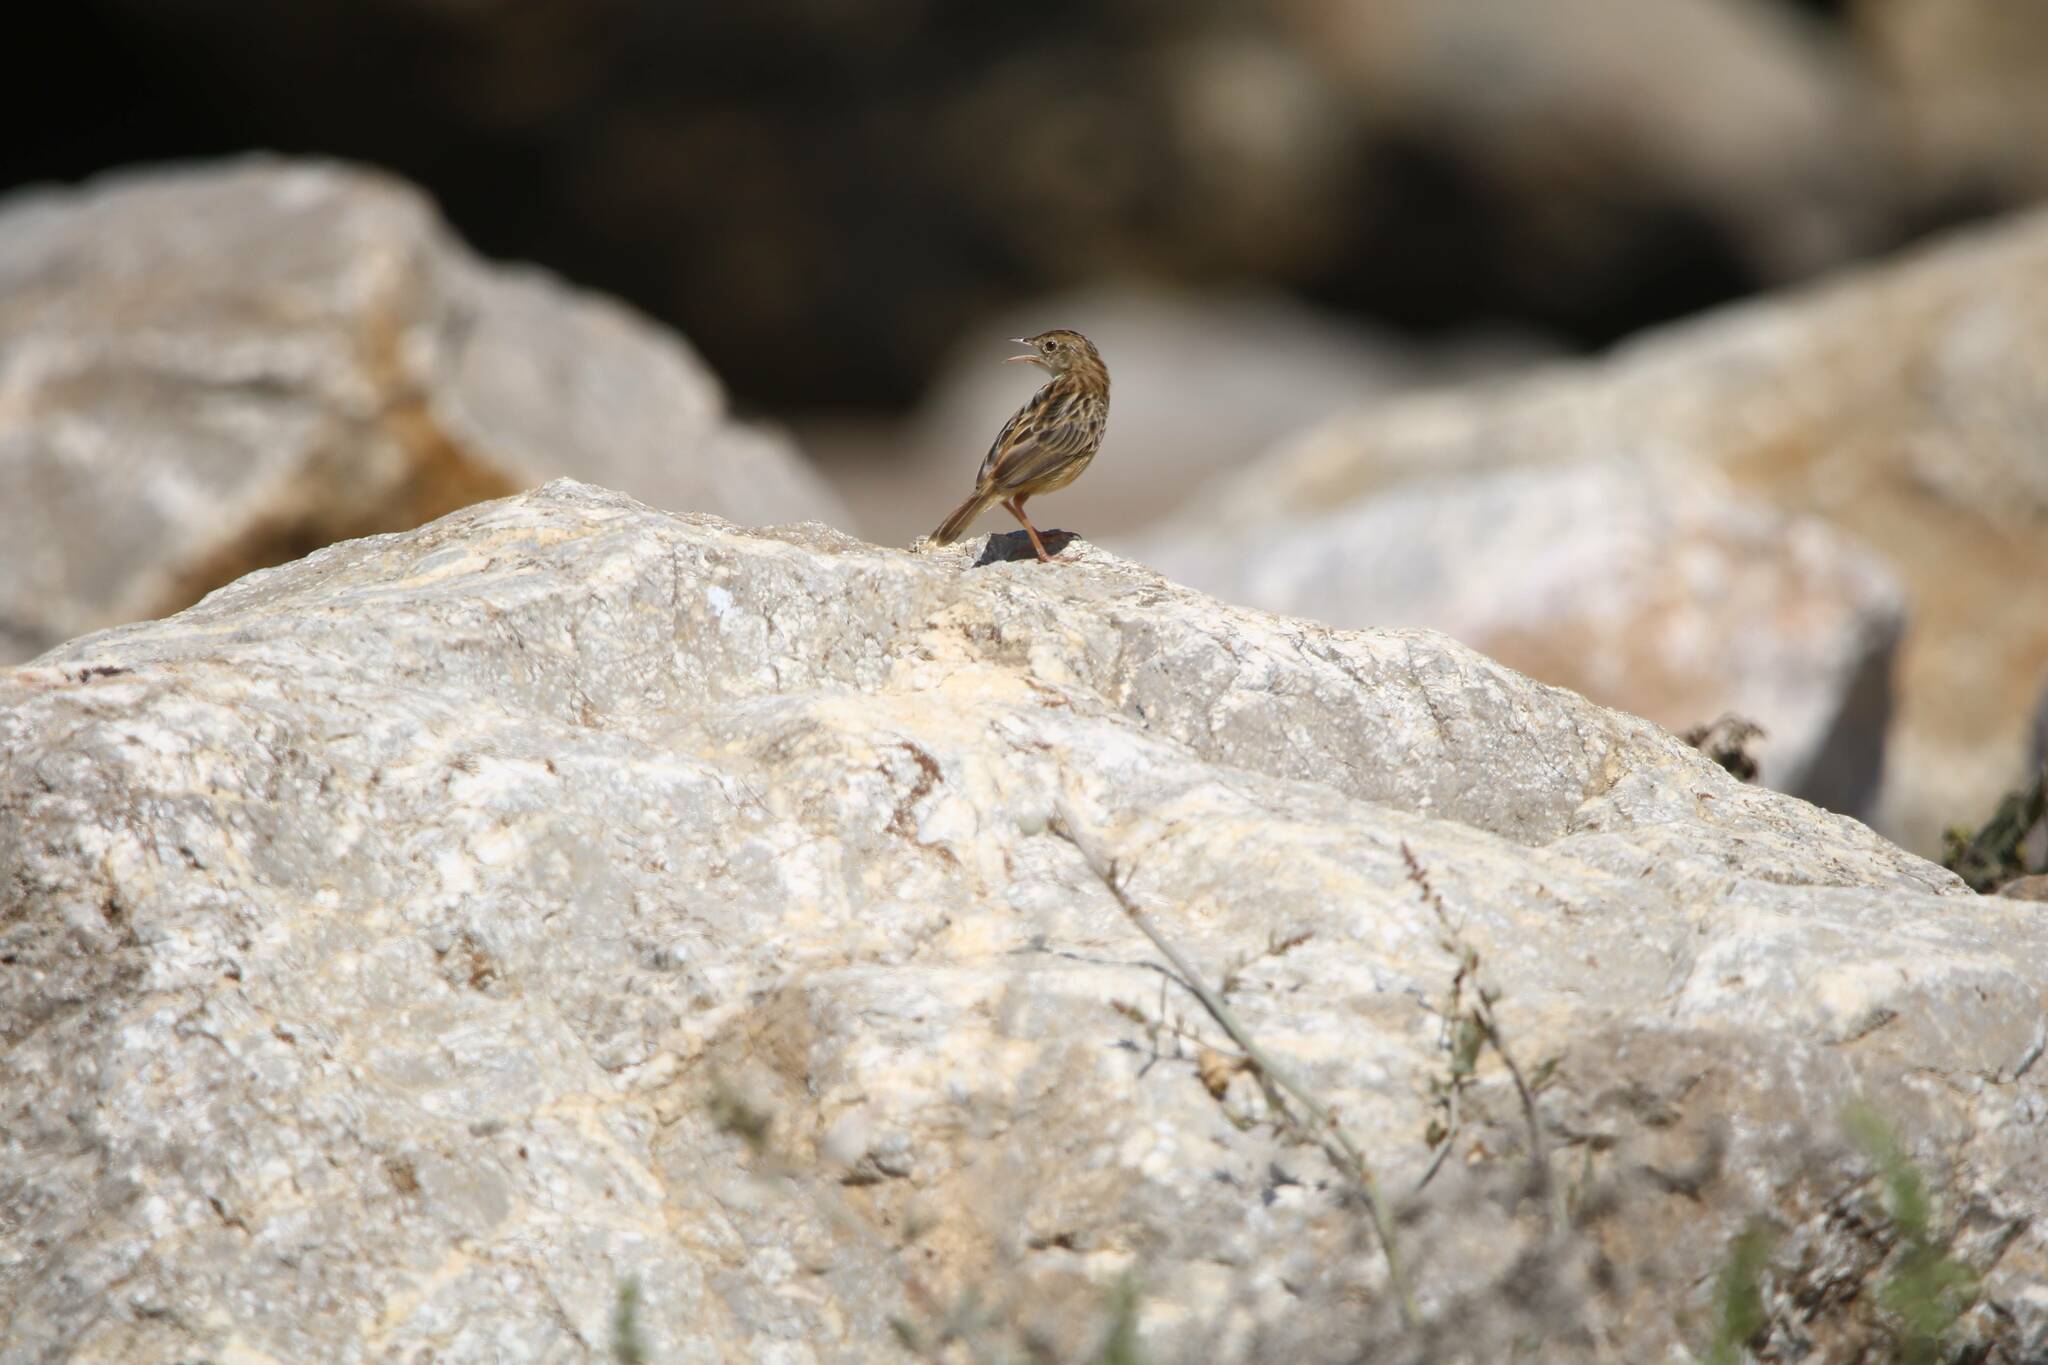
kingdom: Animalia
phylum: Chordata
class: Aves
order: Passeriformes
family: Cisticolidae
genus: Cisticola
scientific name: Cisticola juncidis
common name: Zitting cisticola
